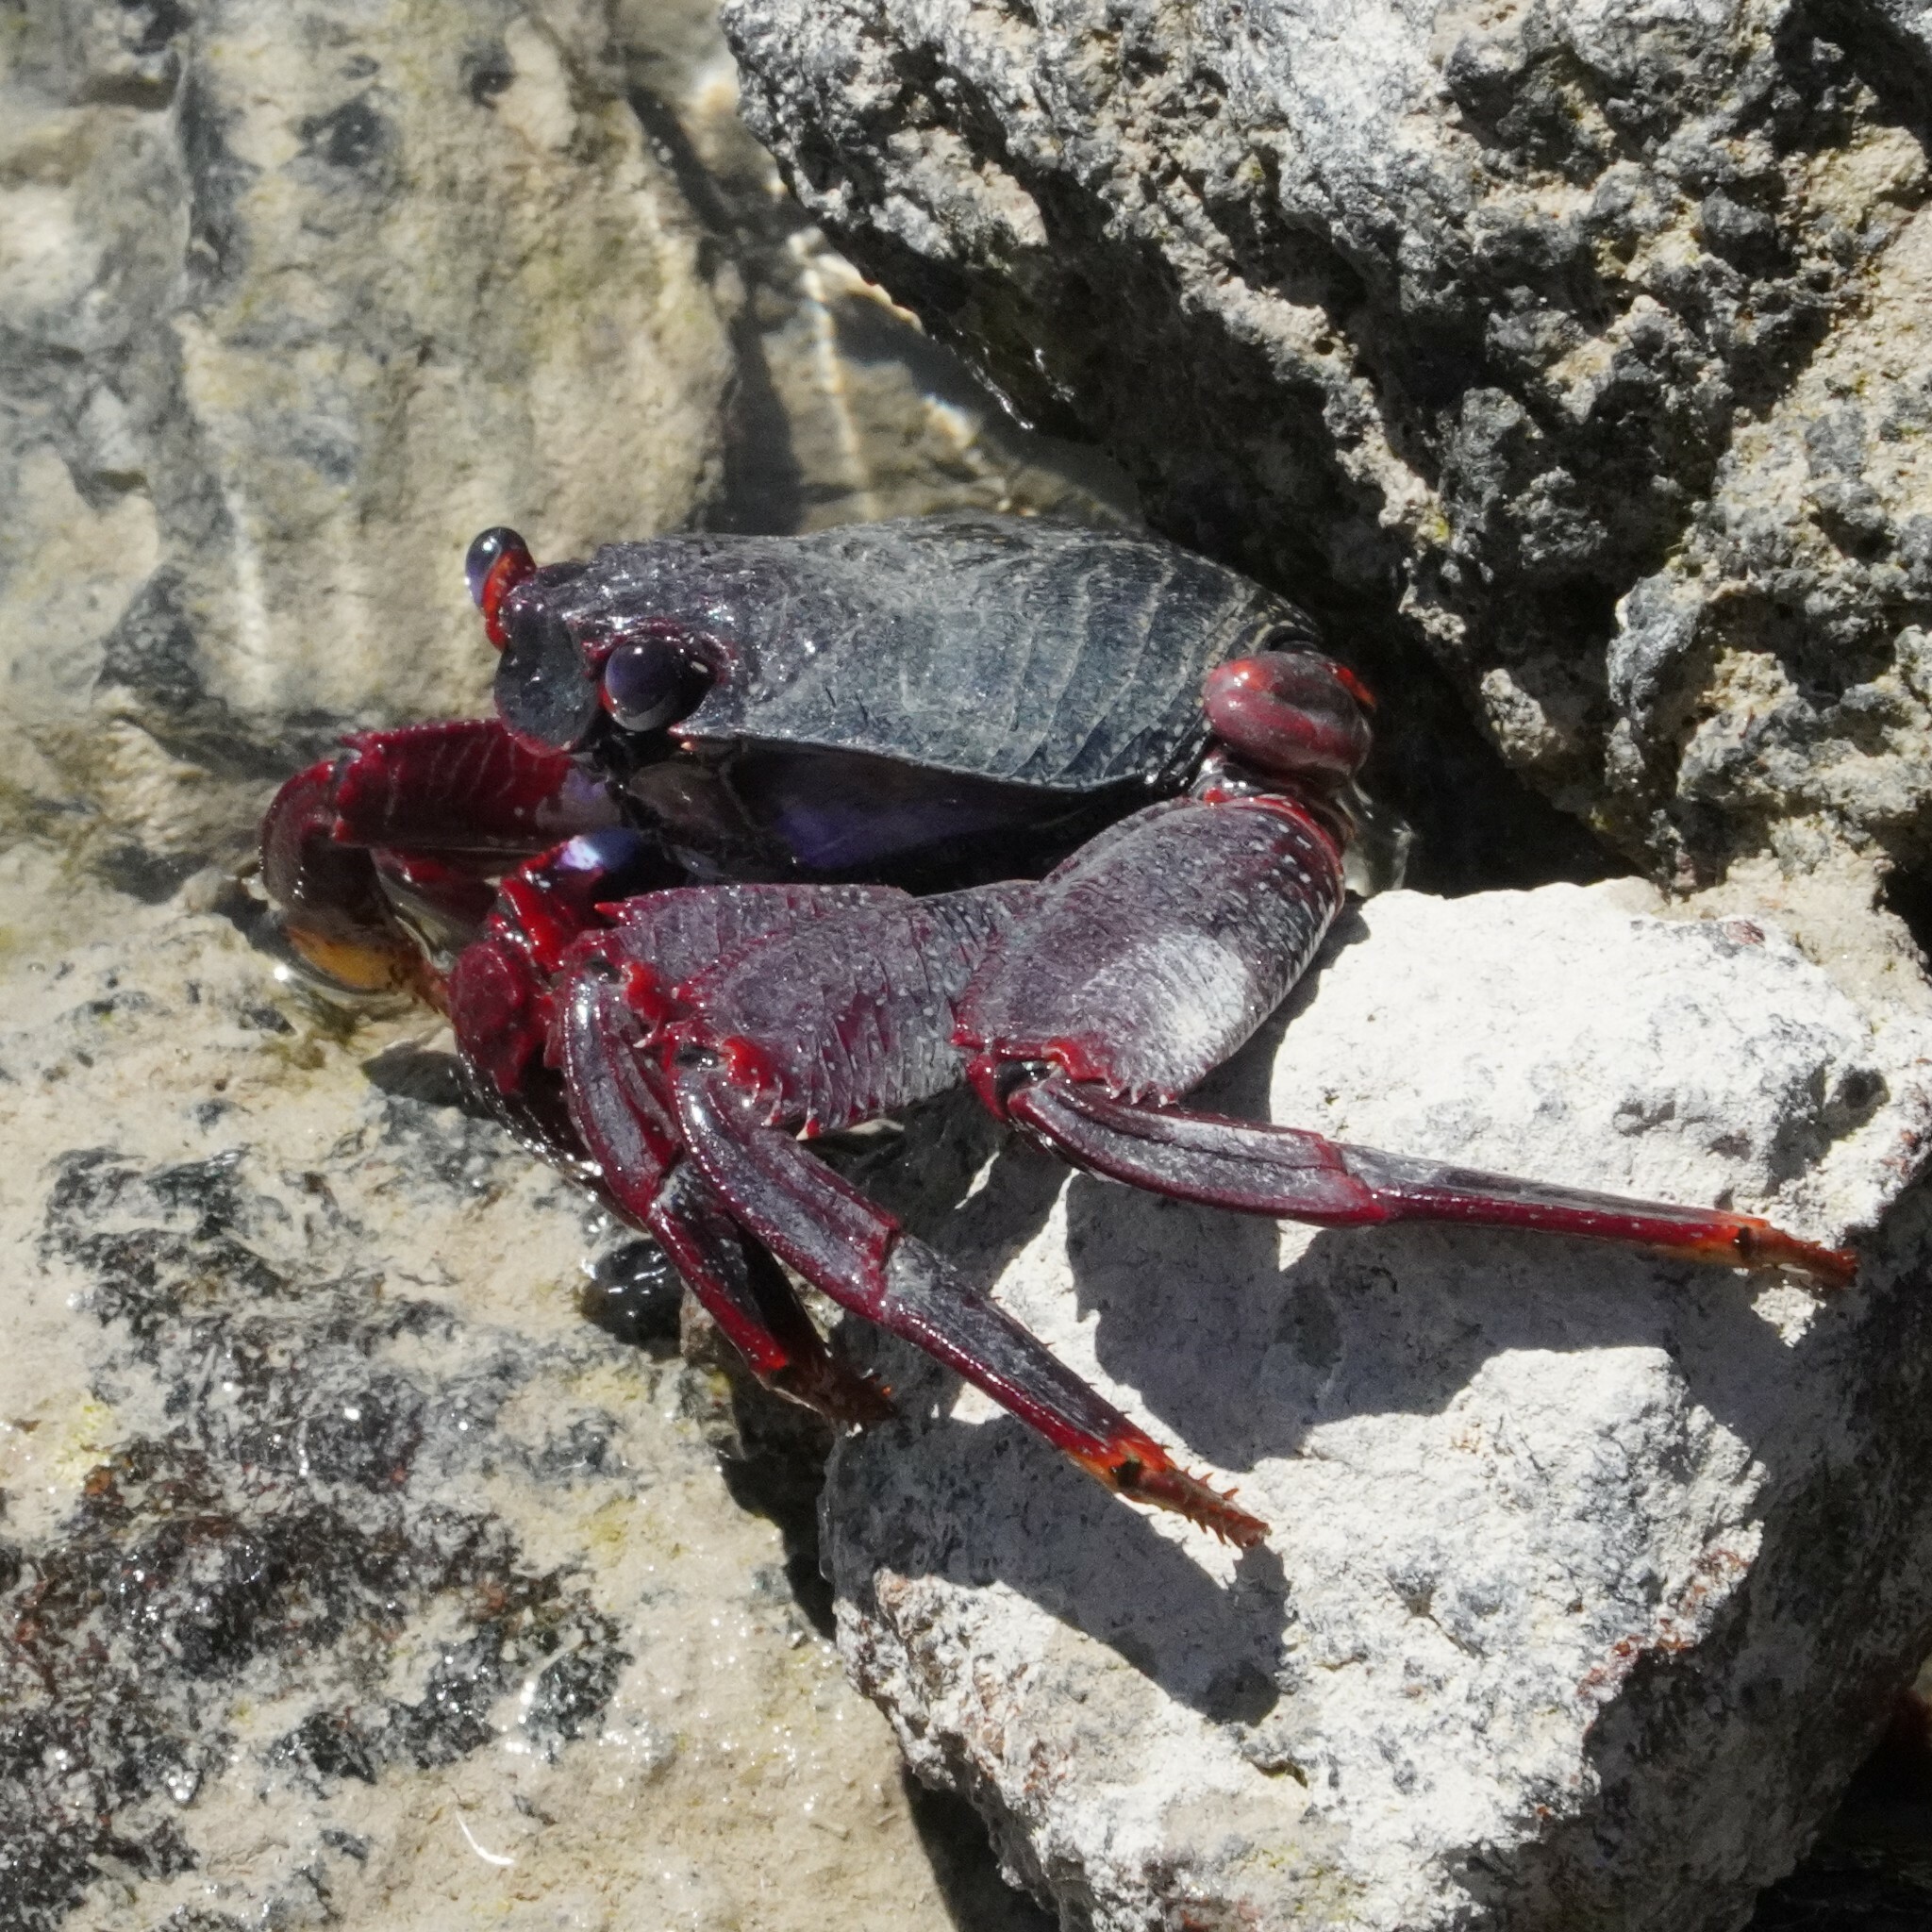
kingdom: Animalia
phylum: Arthropoda
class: Malacostraca
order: Decapoda
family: Grapsidae
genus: Grapsus
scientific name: Grapsus adscensionis
